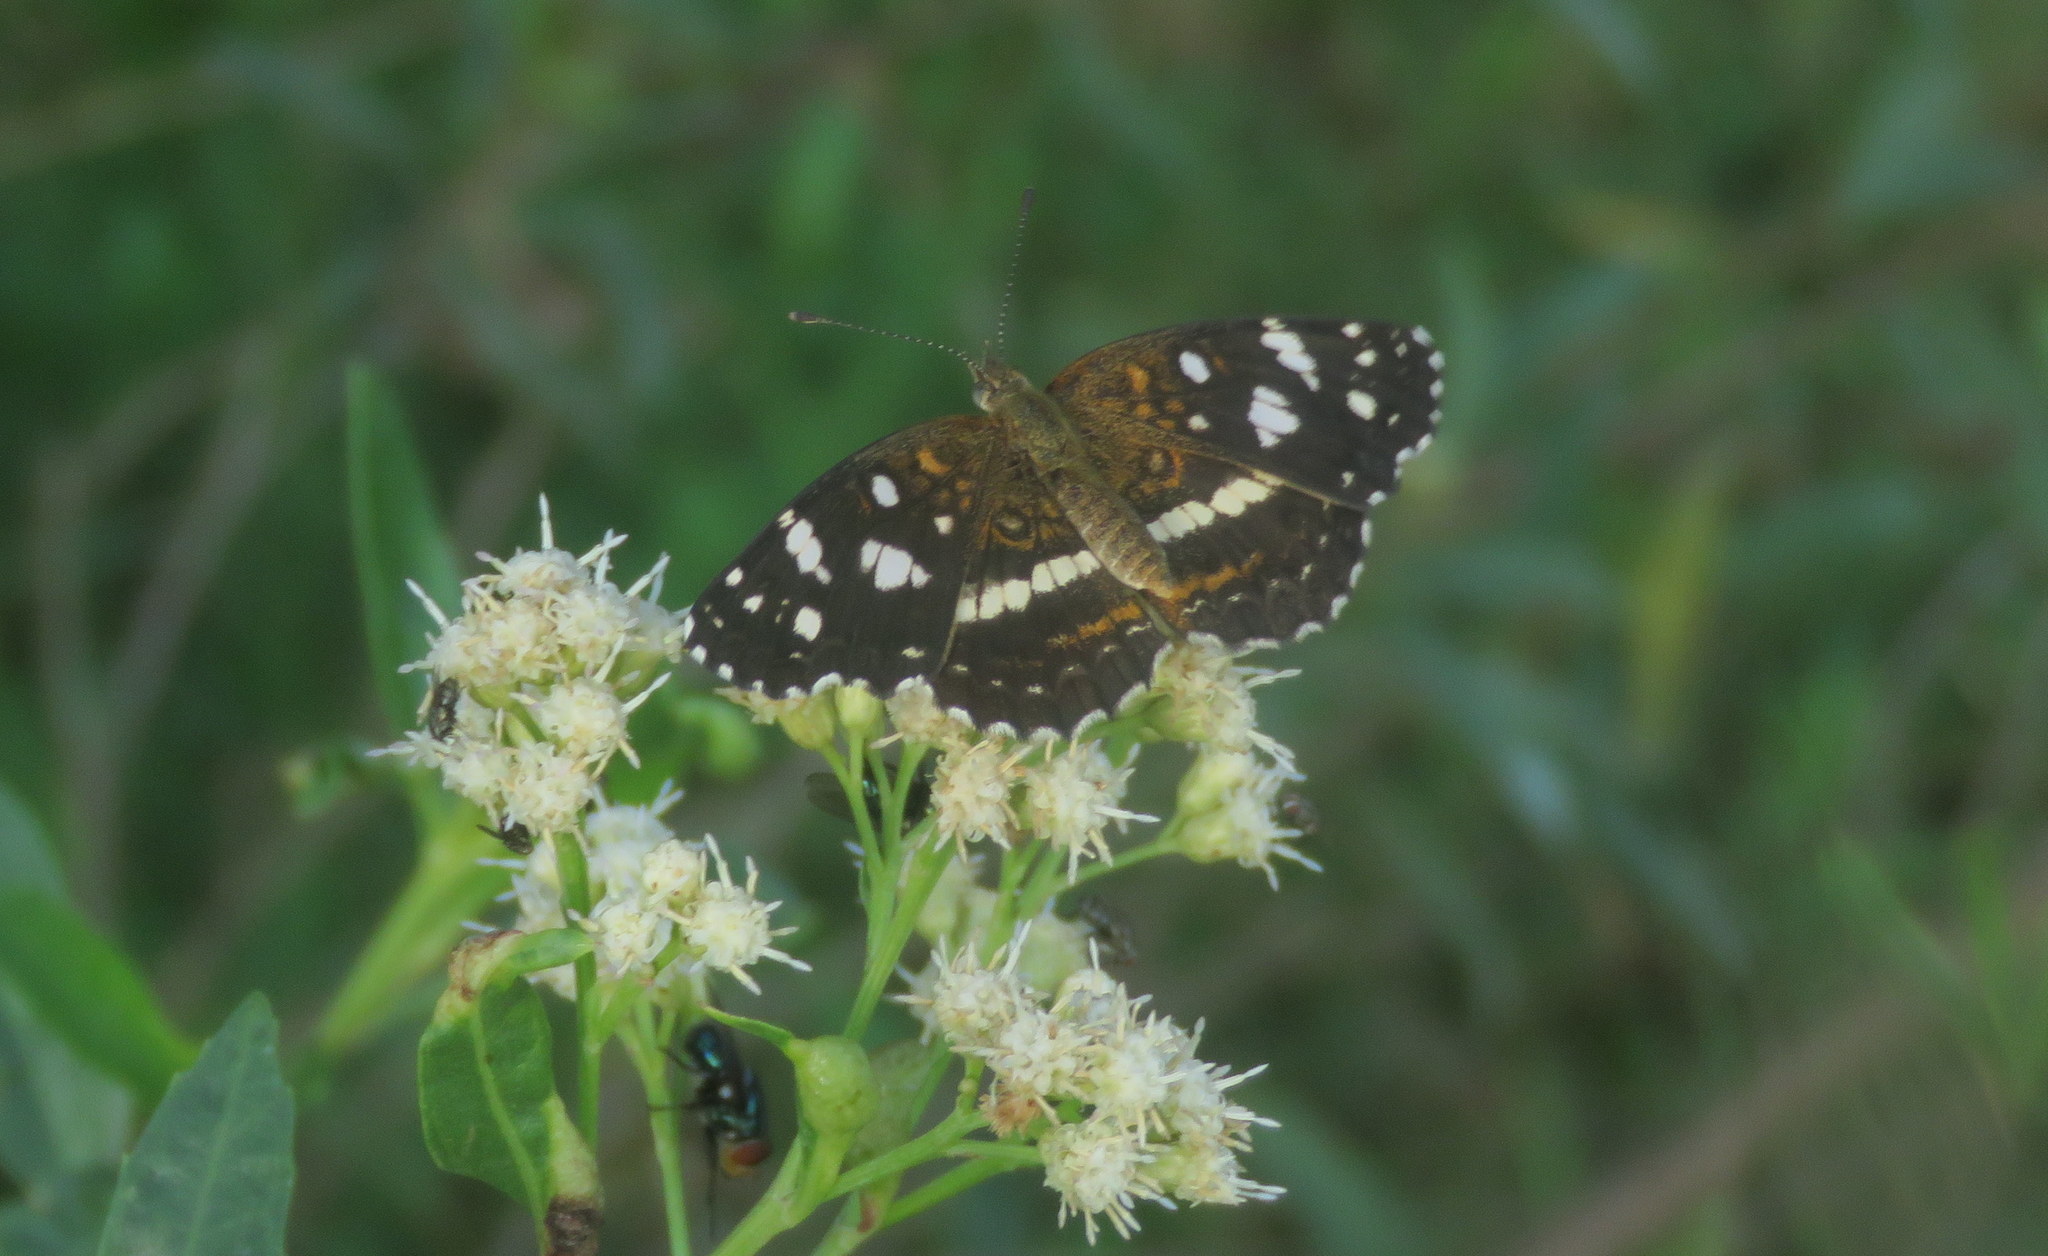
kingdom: Animalia
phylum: Arthropoda
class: Insecta
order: Lepidoptera
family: Nymphalidae
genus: Ortilia
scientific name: Ortilia ithra
